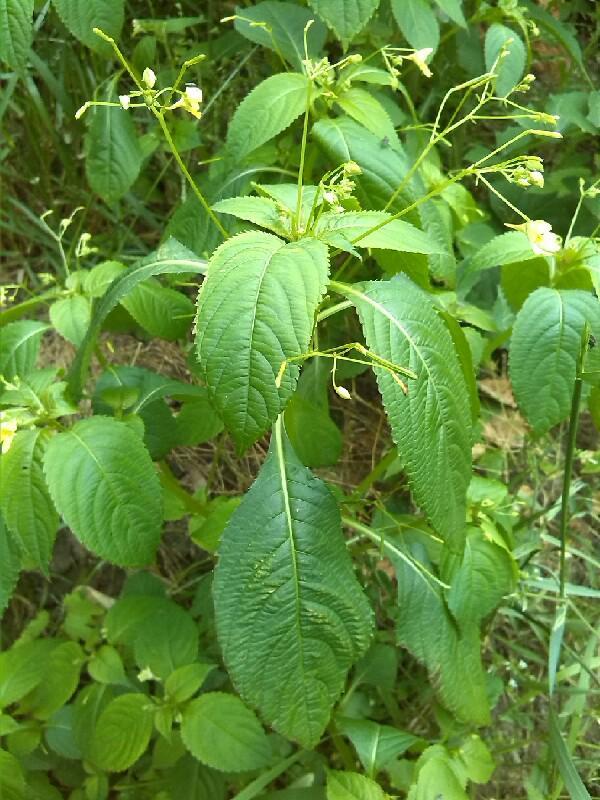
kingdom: Plantae
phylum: Tracheophyta
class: Magnoliopsida
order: Ericales
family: Balsaminaceae
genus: Impatiens
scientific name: Impatiens parviflora
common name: Small balsam
